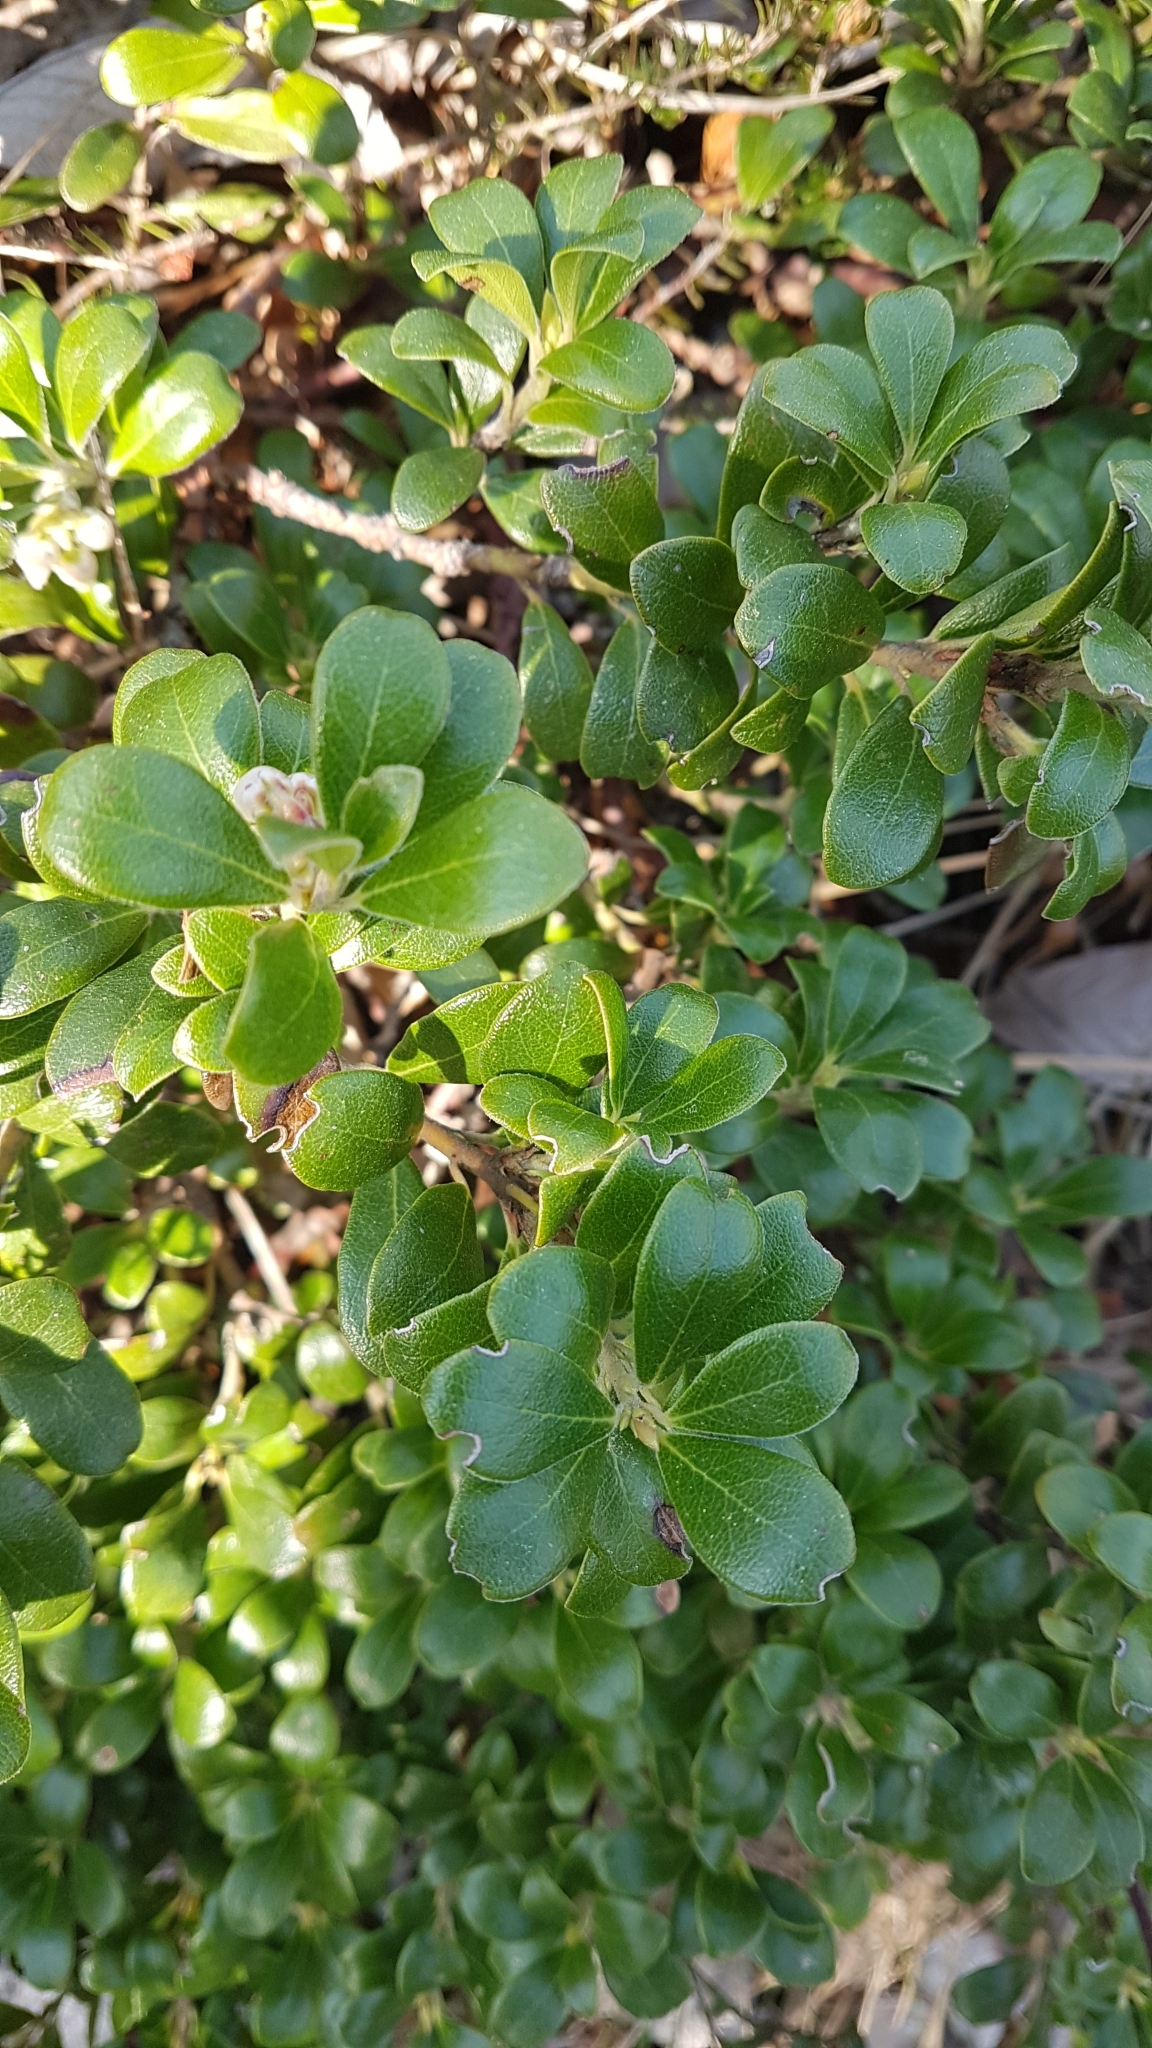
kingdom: Plantae
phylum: Tracheophyta
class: Magnoliopsida
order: Ericales
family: Ericaceae
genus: Arctostaphylos
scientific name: Arctostaphylos uva-ursi
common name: Bearberry
